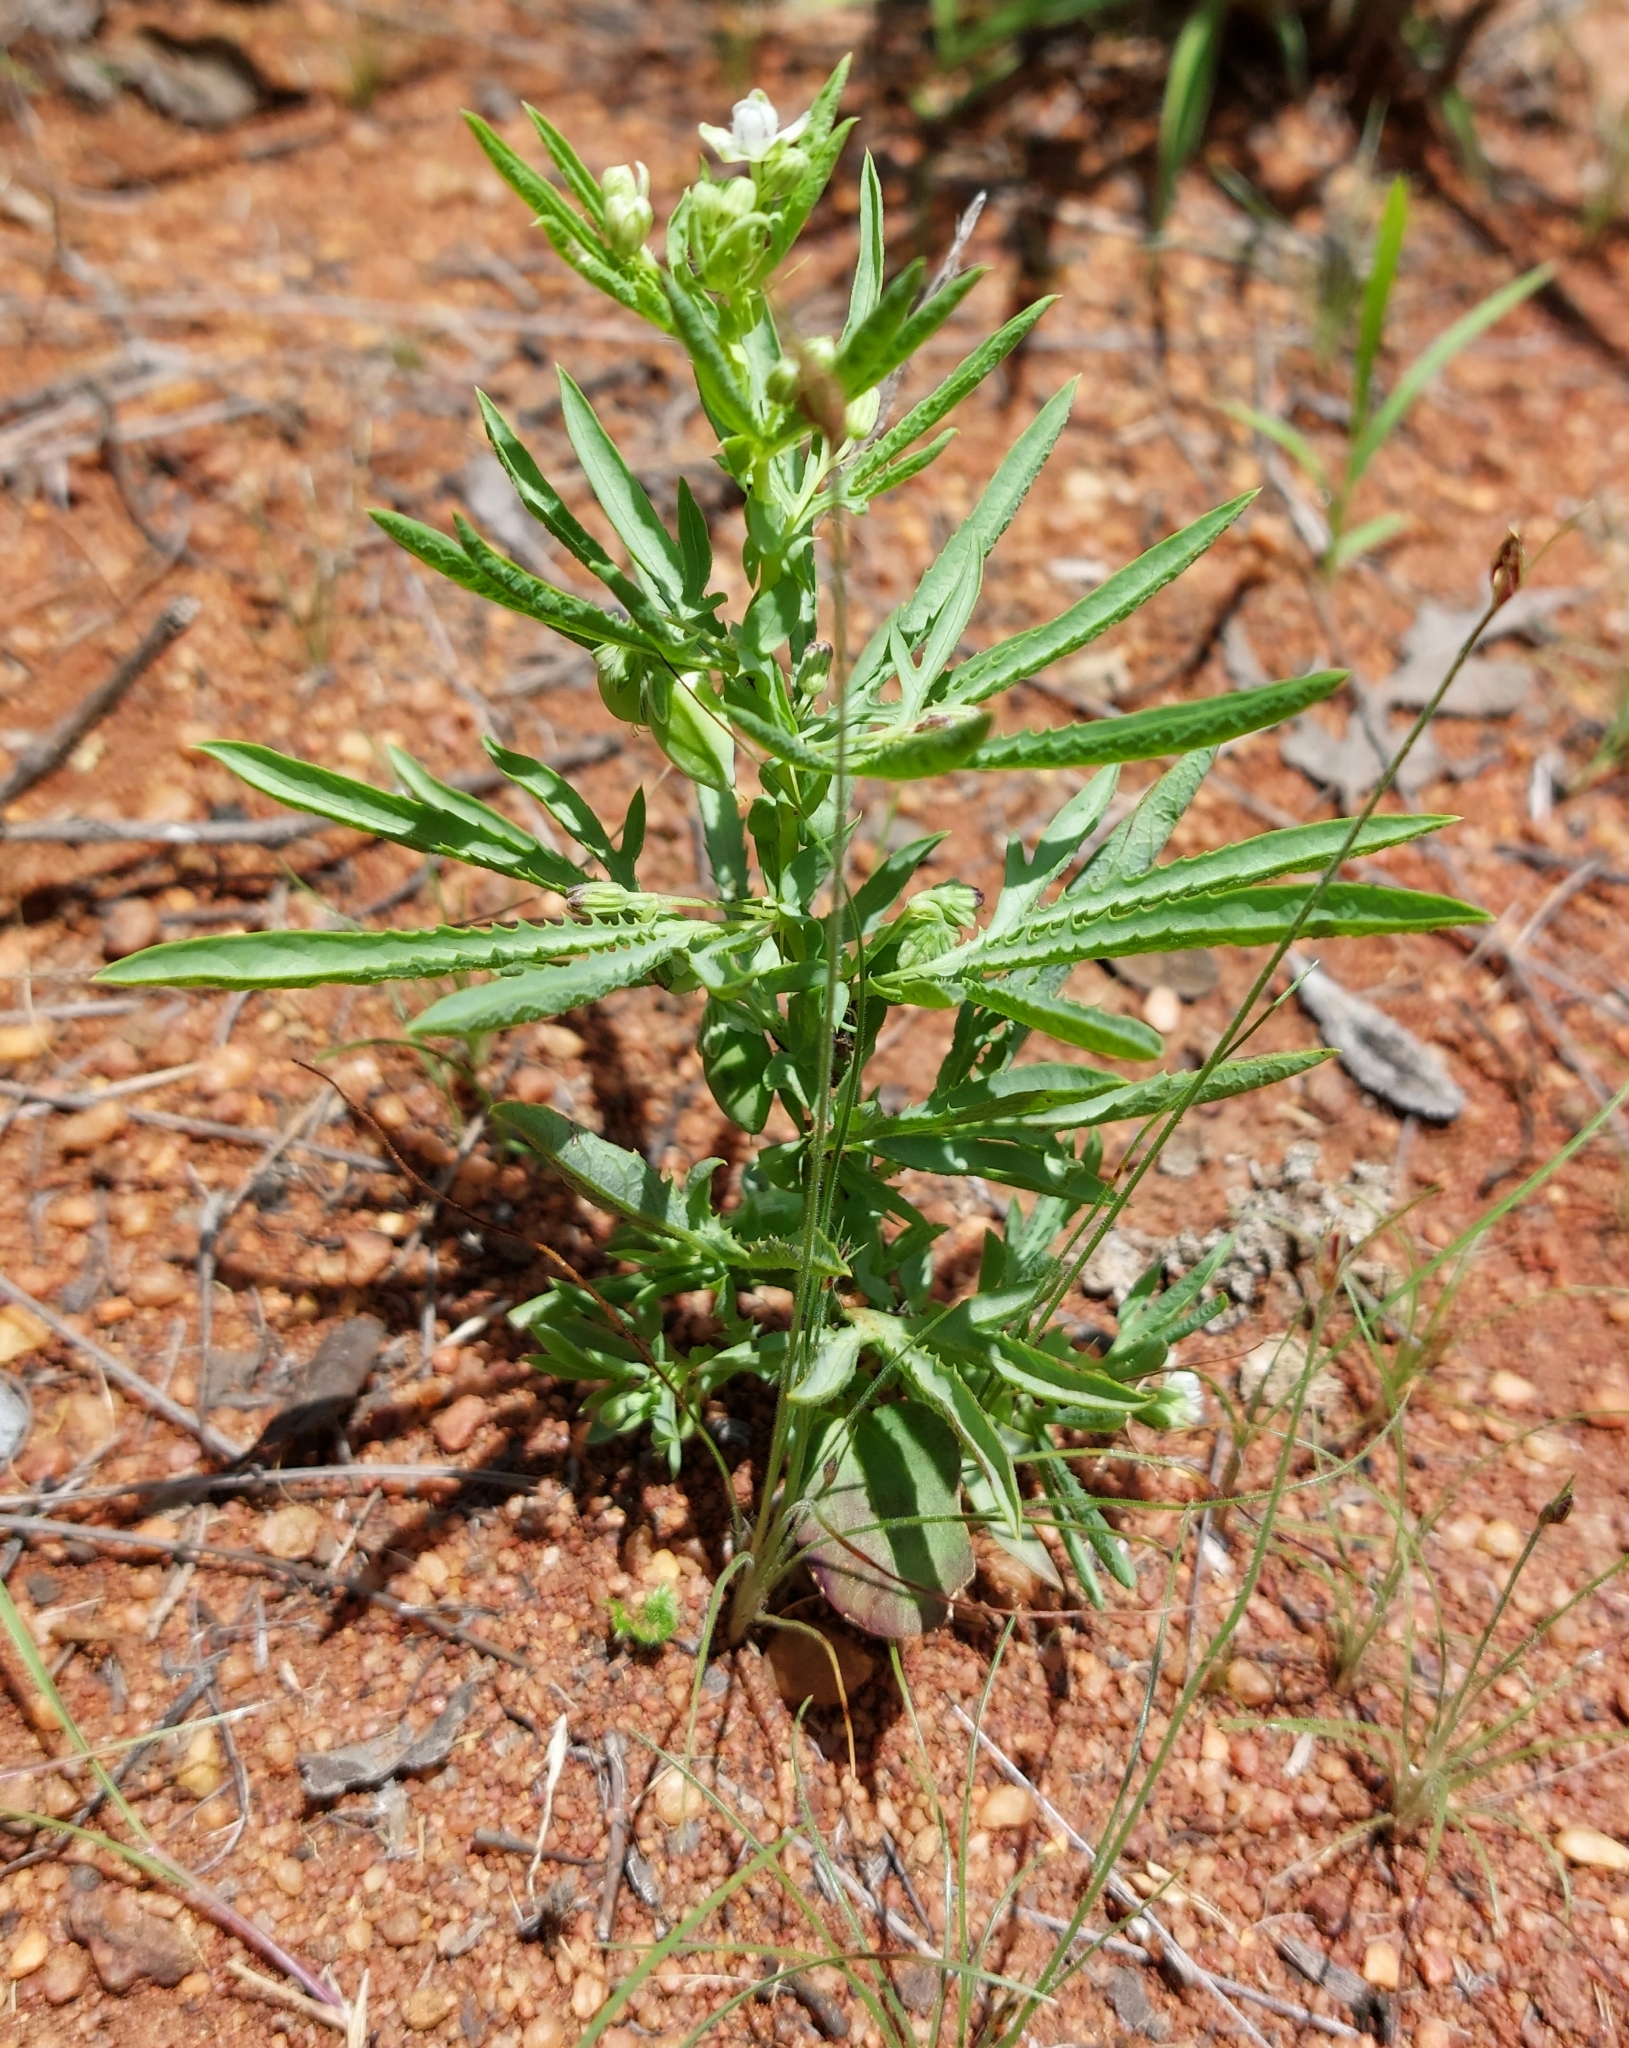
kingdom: Plantae
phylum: Tracheophyta
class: Magnoliopsida
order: Malpighiales
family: Passifloraceae
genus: Basananthe
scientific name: Basananthe pedata
